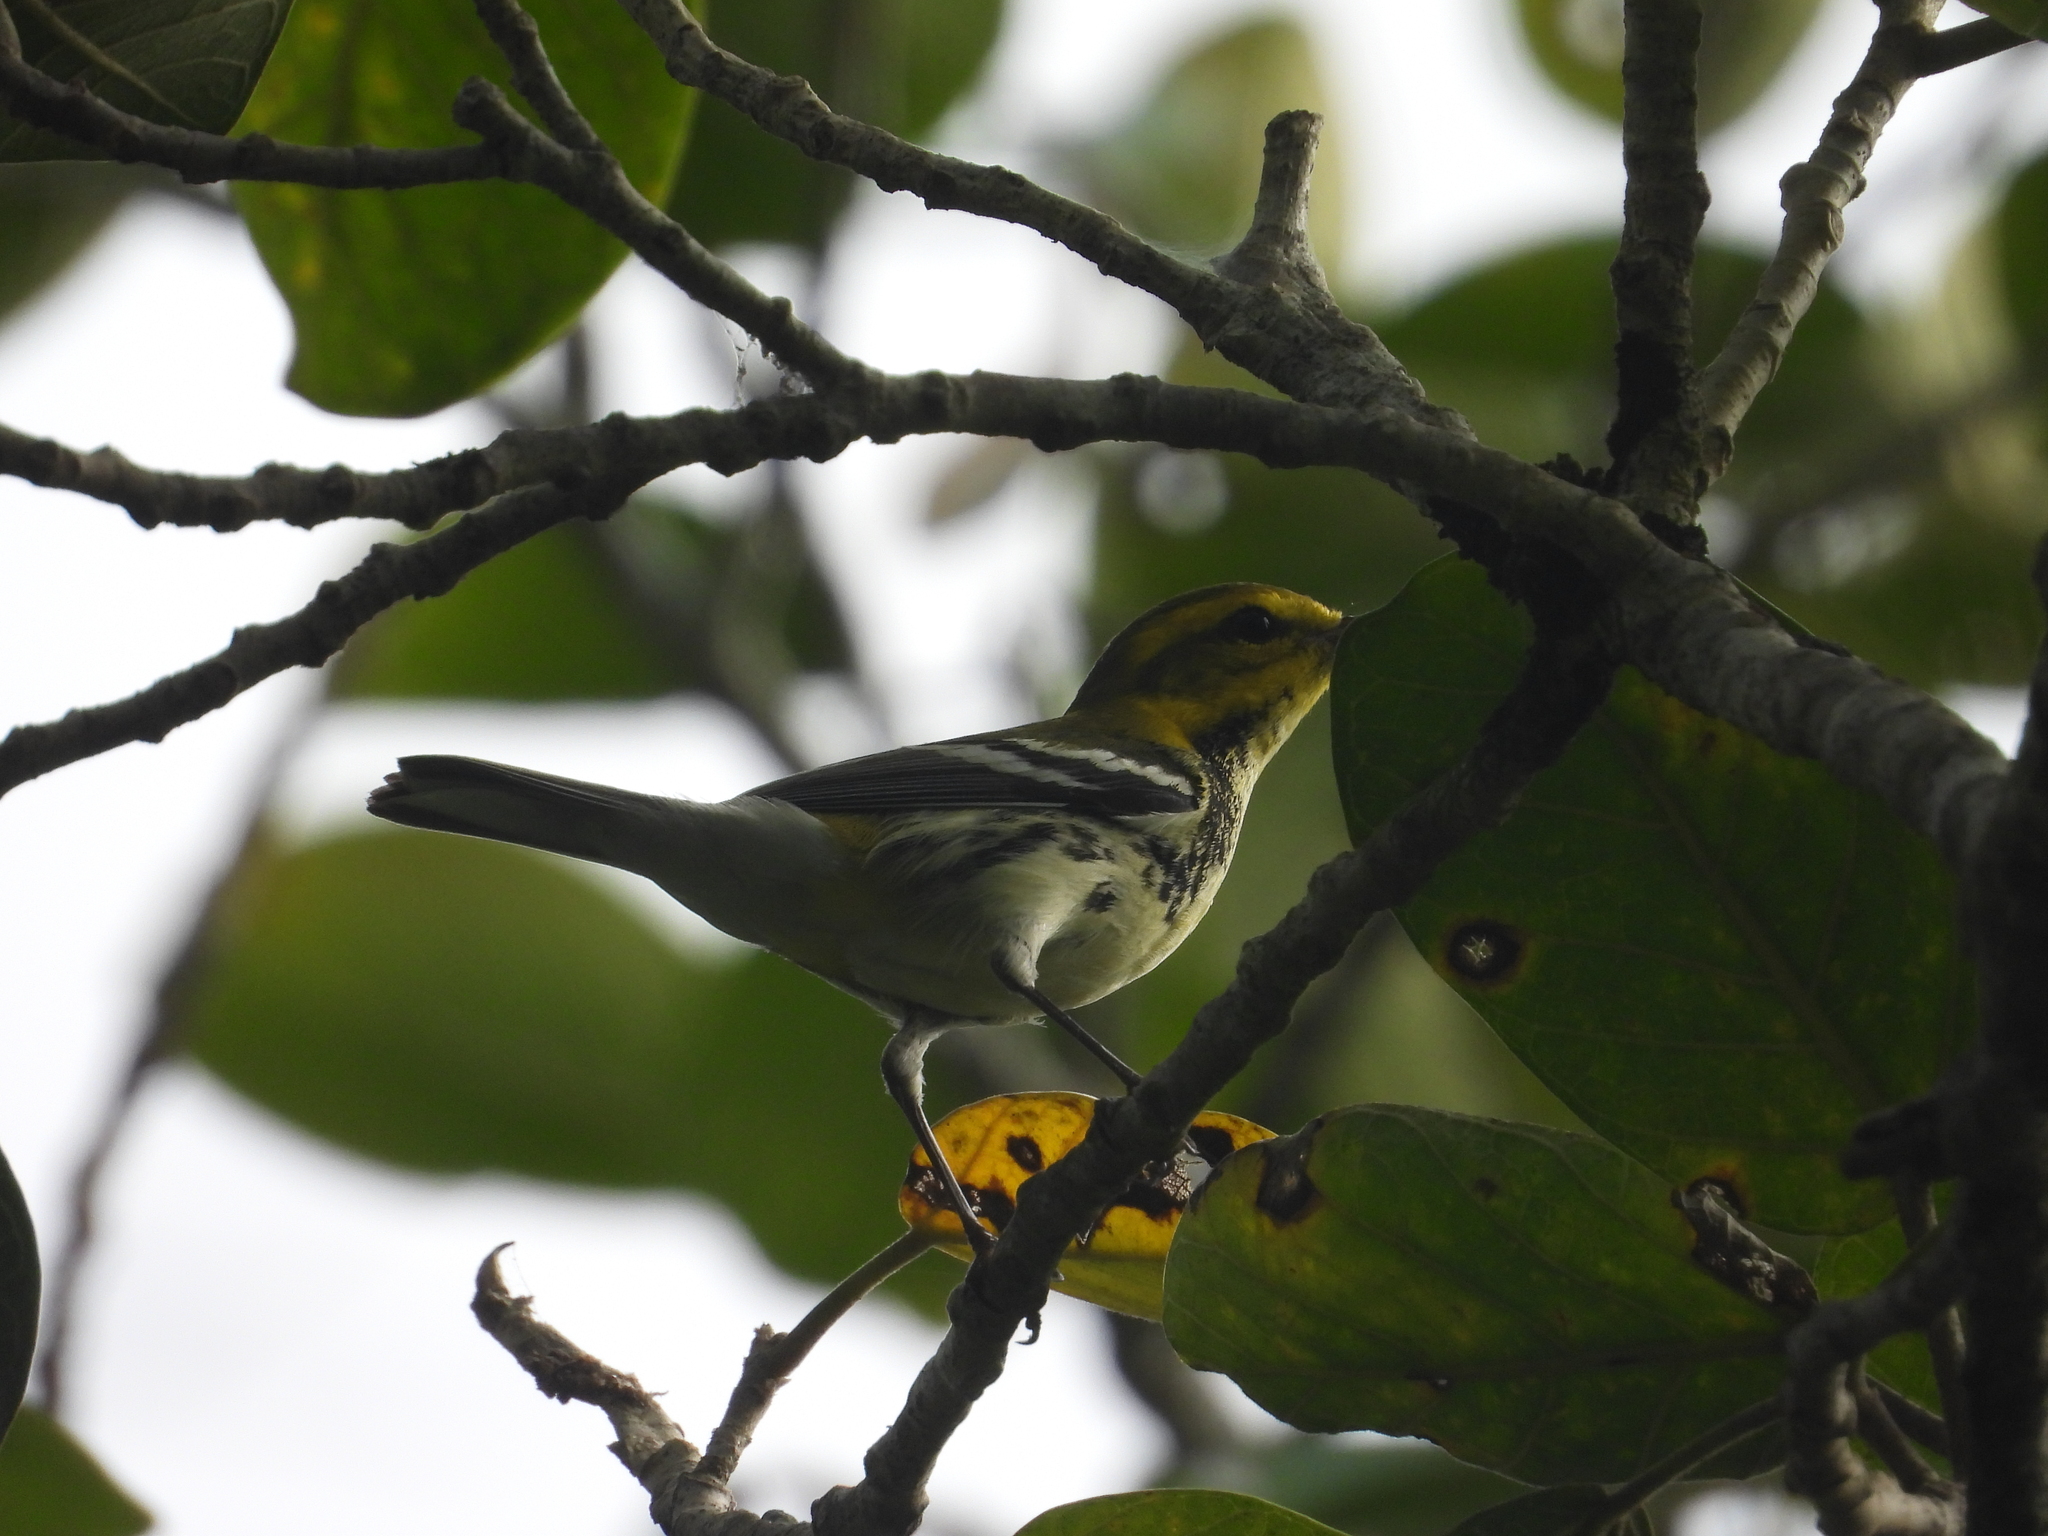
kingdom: Animalia
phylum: Chordata
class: Aves
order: Passeriformes
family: Parulidae
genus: Setophaga
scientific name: Setophaga virens
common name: Black-throated green warbler
